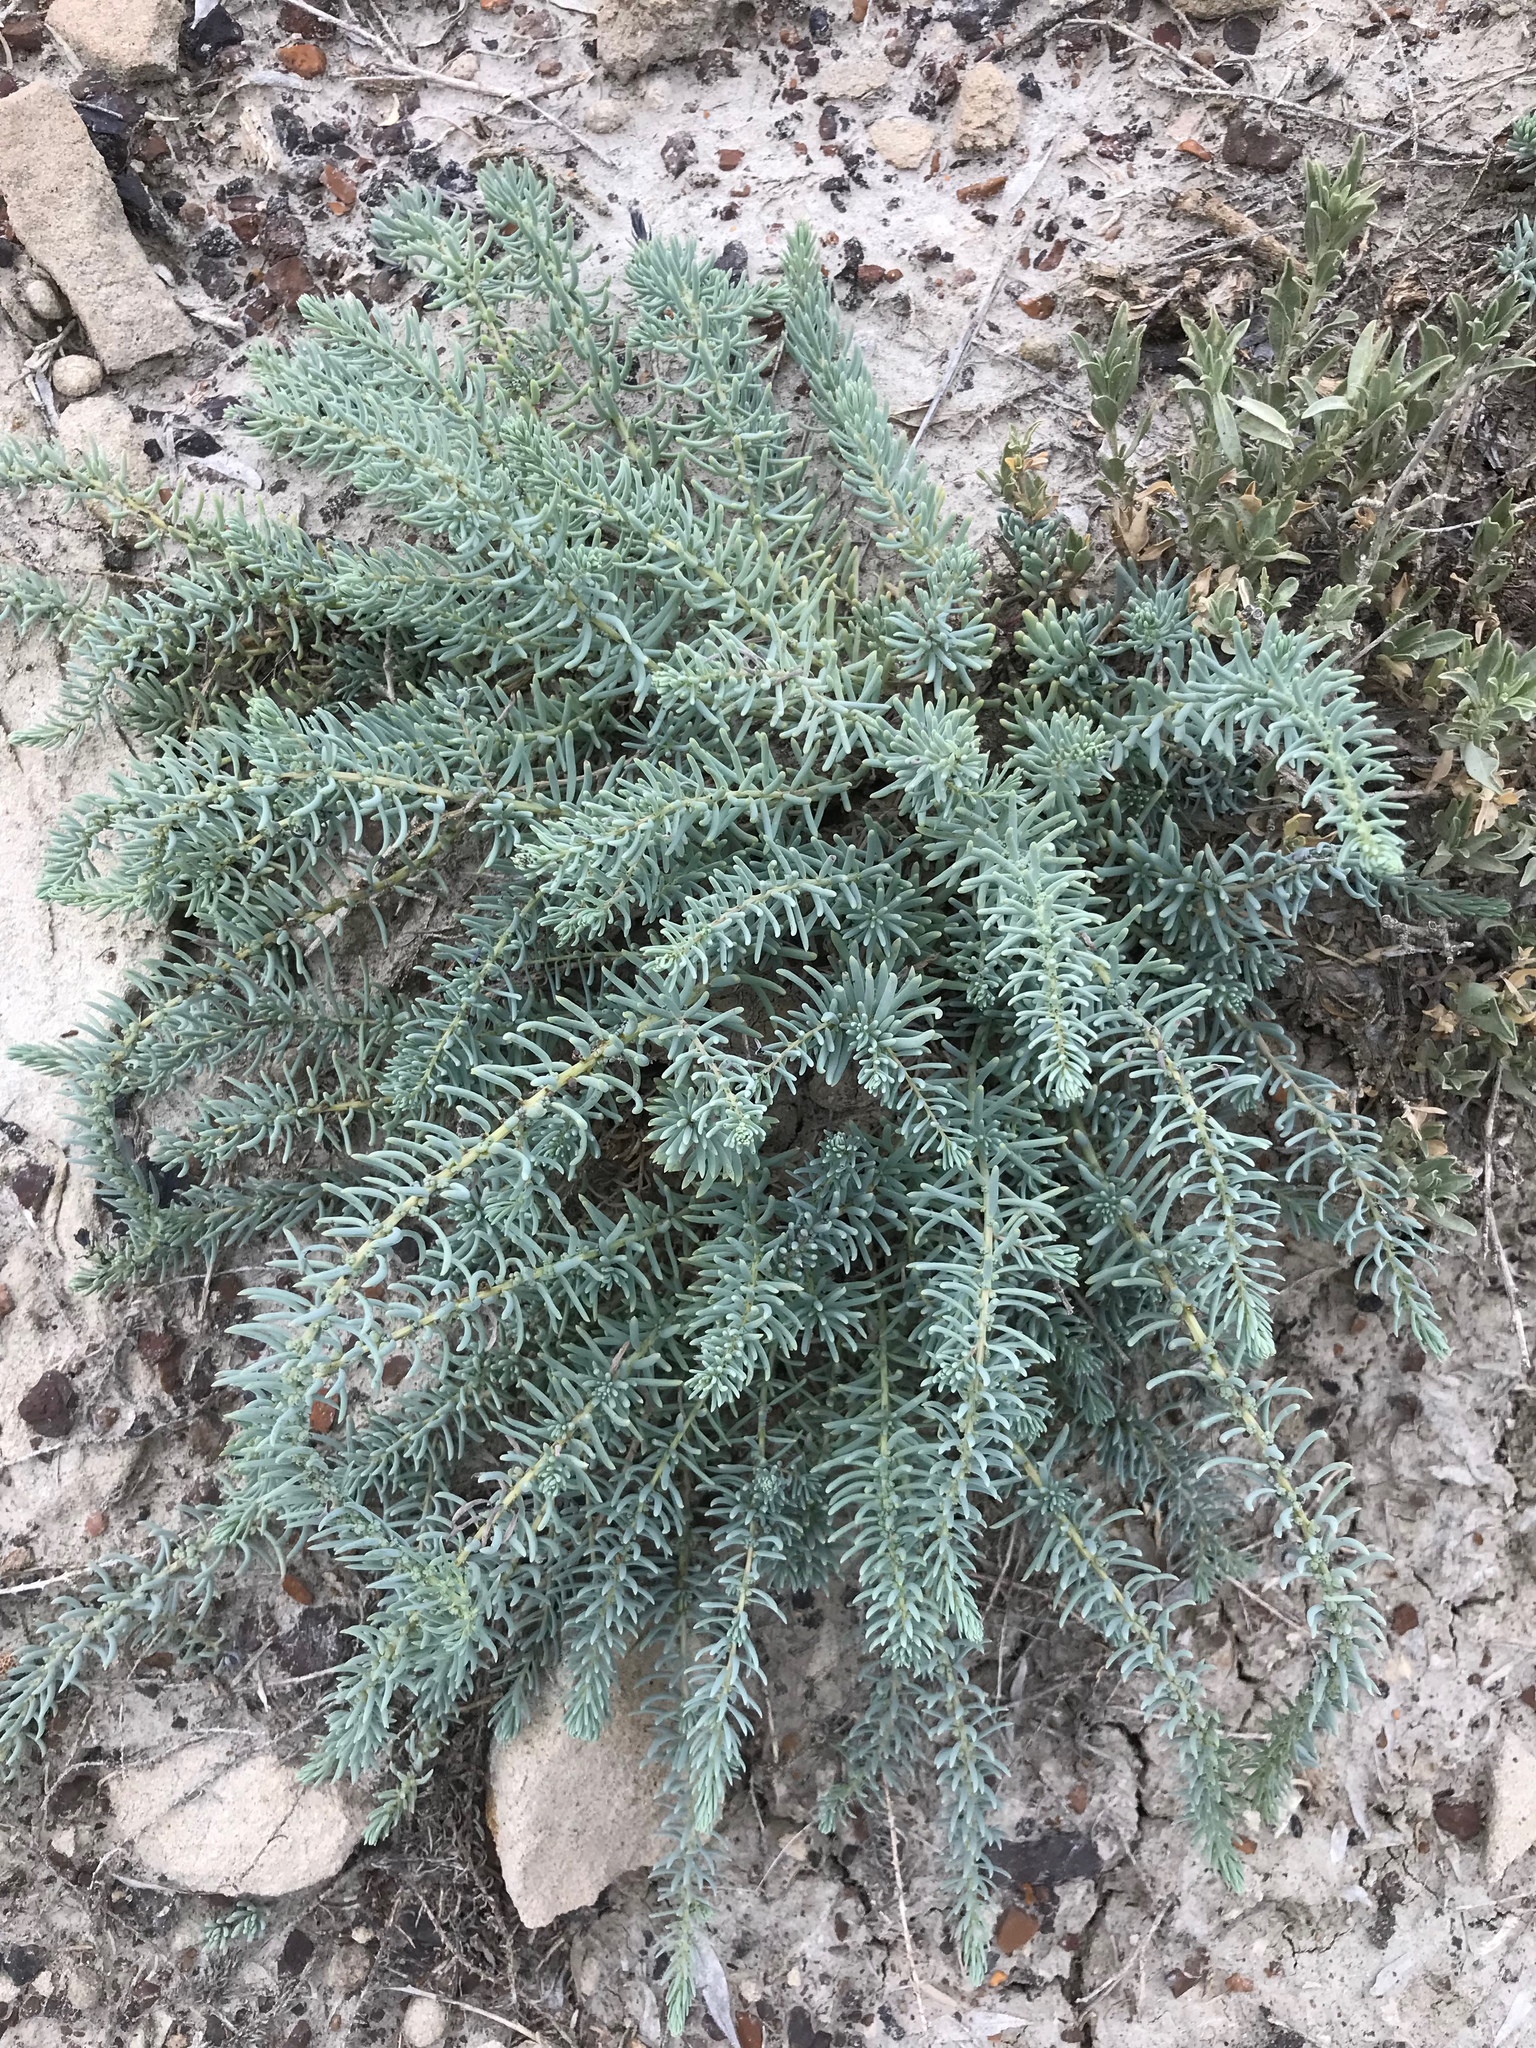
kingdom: Plantae
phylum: Tracheophyta
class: Magnoliopsida
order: Caryophyllales
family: Amaranthaceae
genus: Suaeda
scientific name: Suaeda nigra
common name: Bush seepweed
